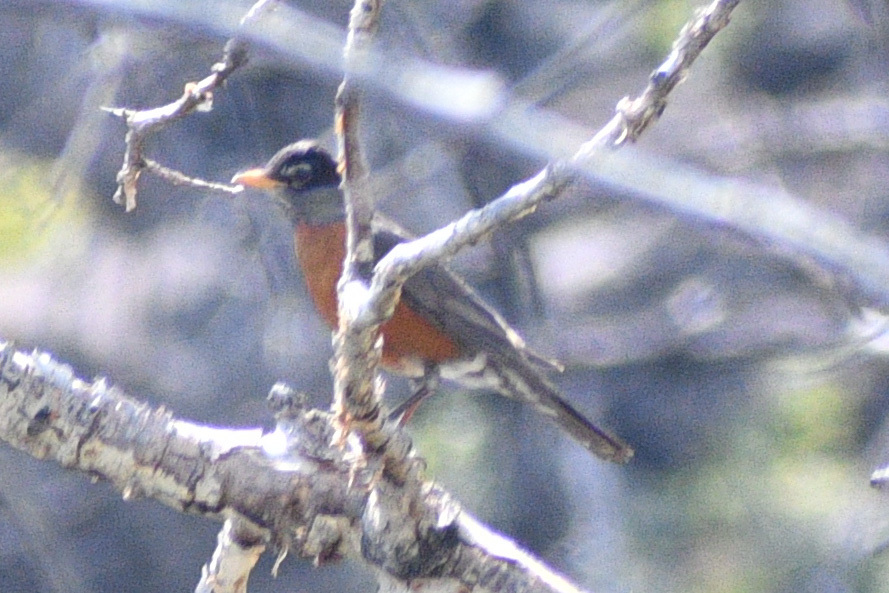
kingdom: Animalia
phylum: Chordata
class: Aves
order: Passeriformes
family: Turdidae
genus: Turdus
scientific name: Turdus migratorius
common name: American robin
